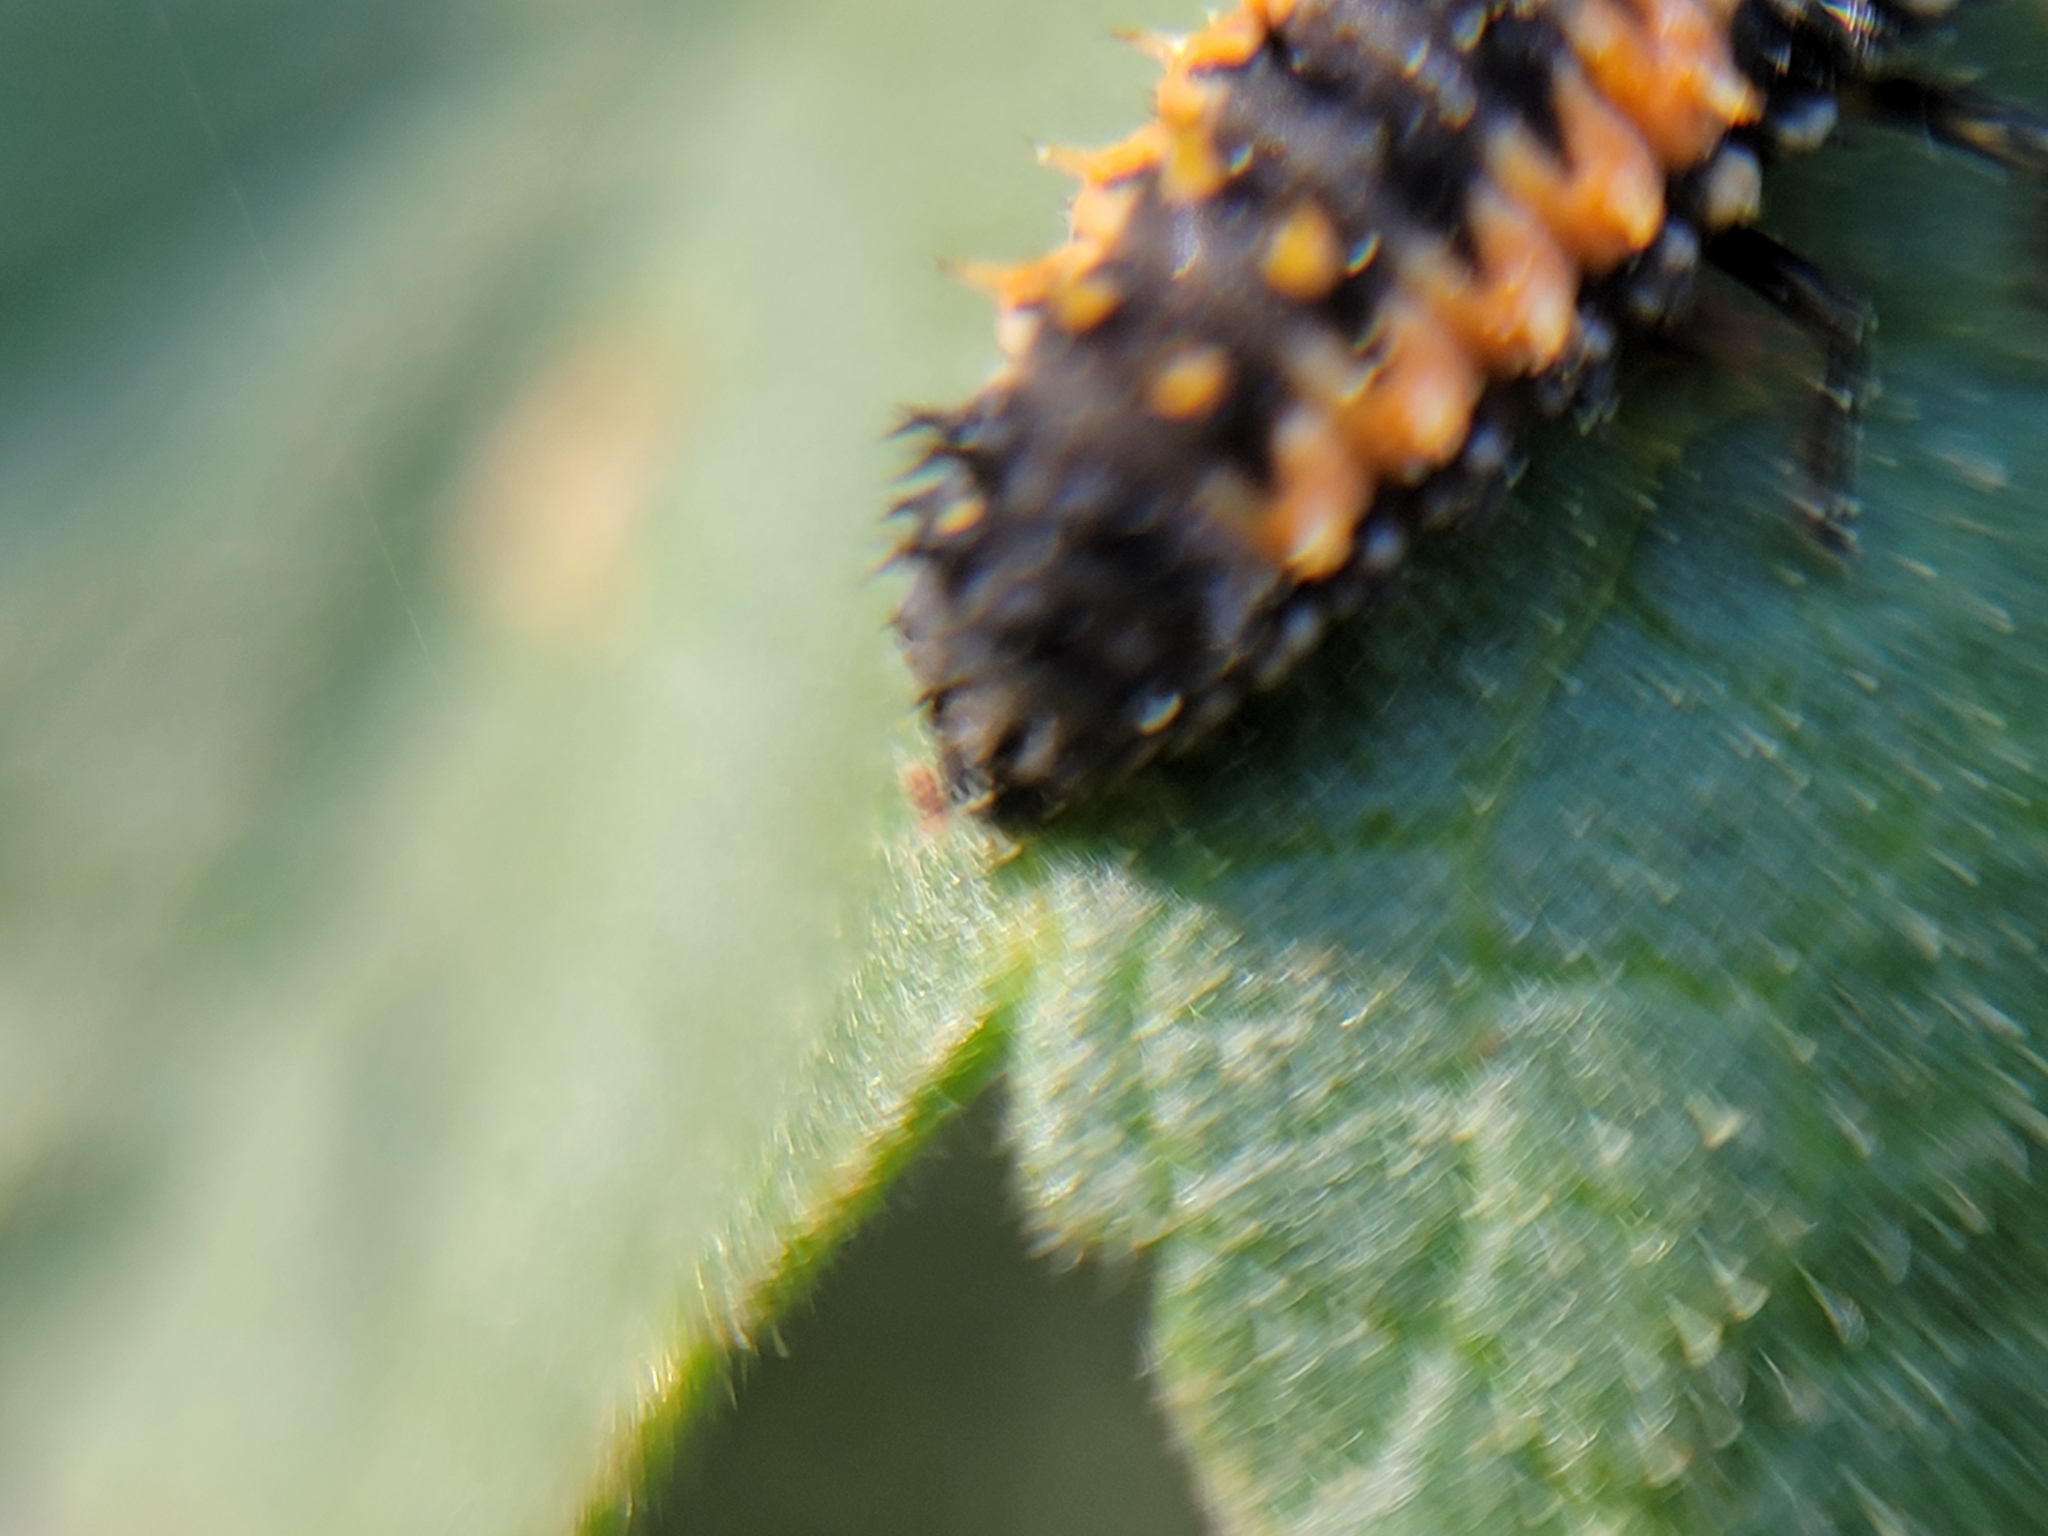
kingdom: Animalia
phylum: Arthropoda
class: Insecta
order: Coleoptera
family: Coccinellidae
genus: Harmonia
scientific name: Harmonia axyridis
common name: Harlequin ladybird
